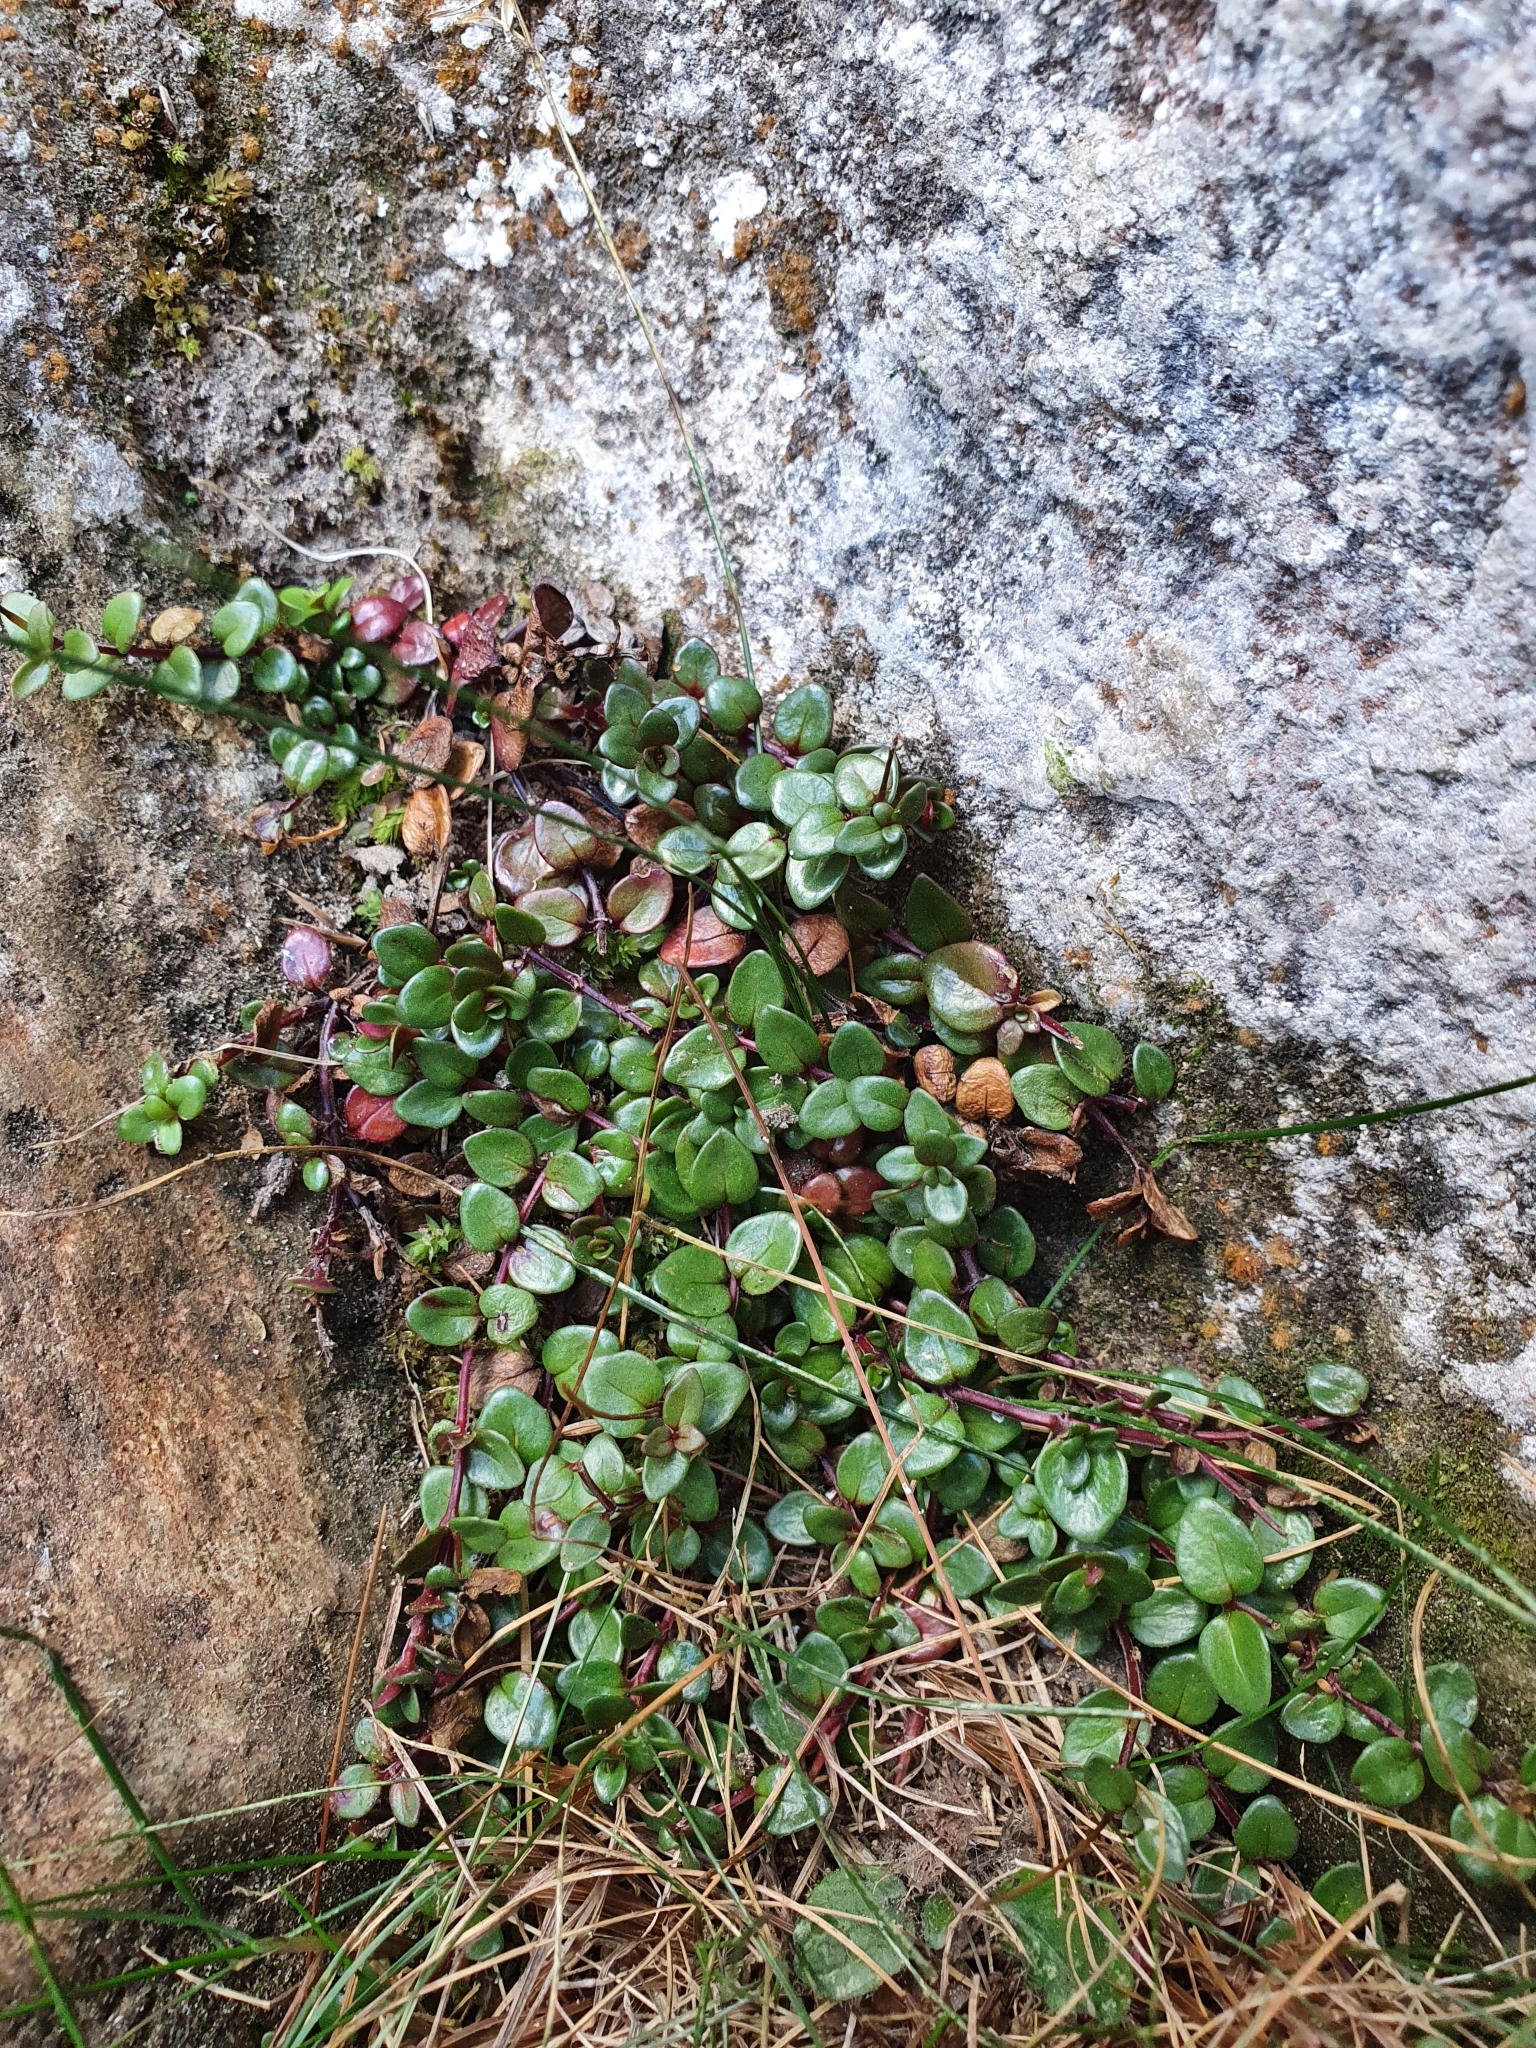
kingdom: Plantae
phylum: Tracheophyta
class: Magnoliopsida
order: Myrtales
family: Onagraceae
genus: Epilobium
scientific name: Epilobium gracilipes
